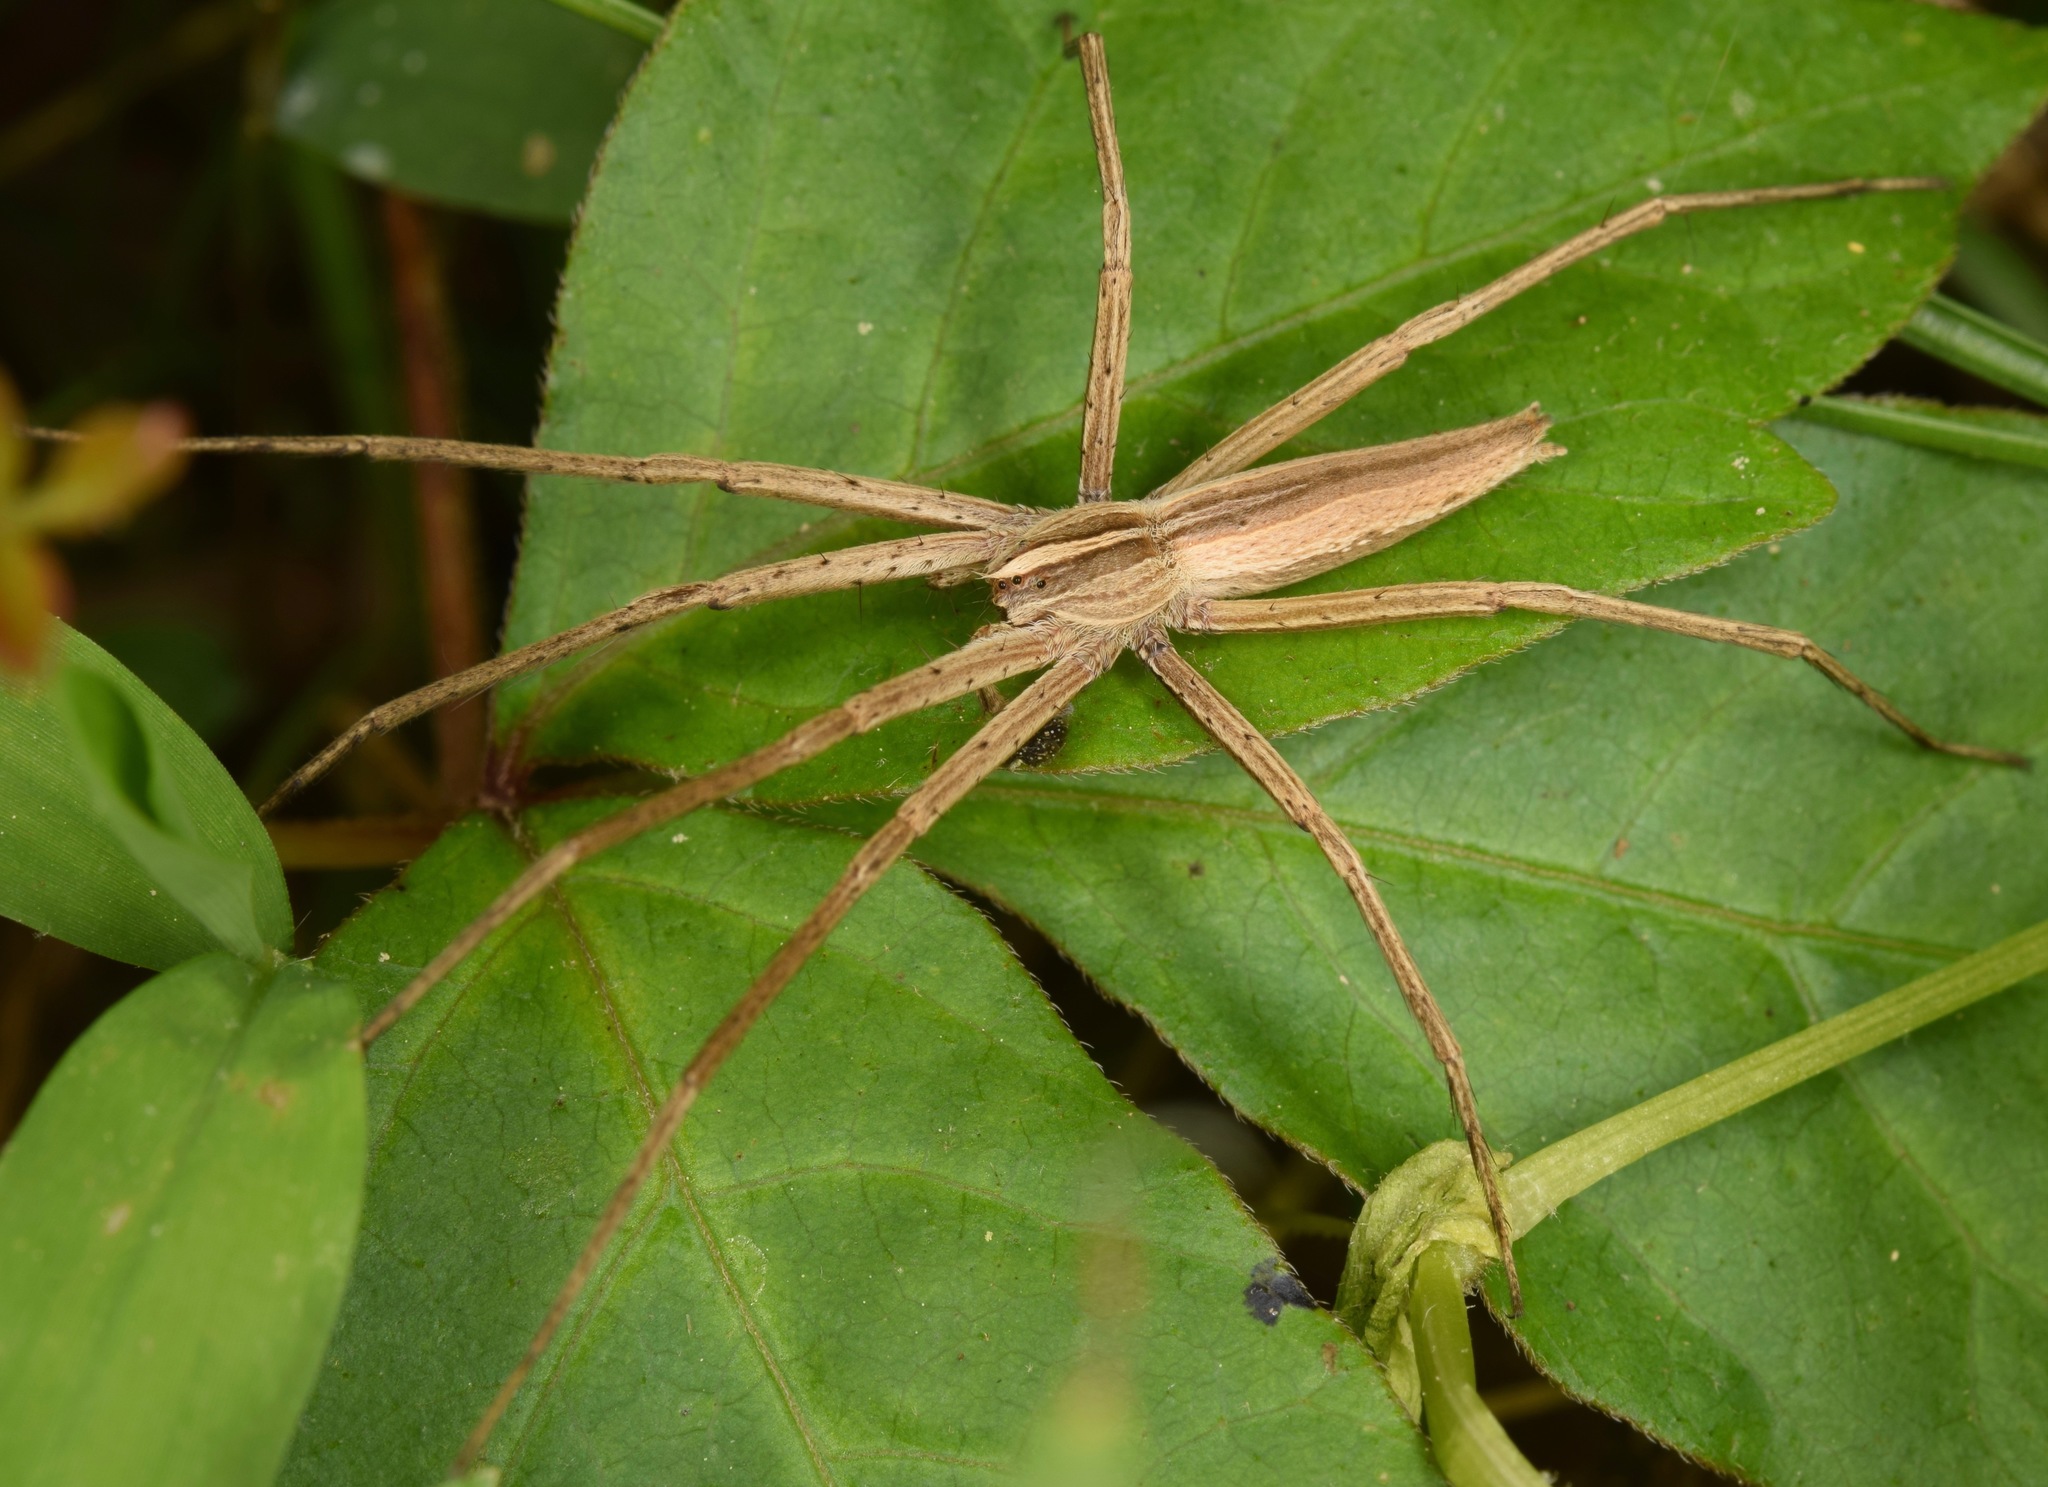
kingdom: Animalia
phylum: Arthropoda
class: Arachnida
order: Araneae
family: Pisauridae
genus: Pisaurina
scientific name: Pisaurina dubia
